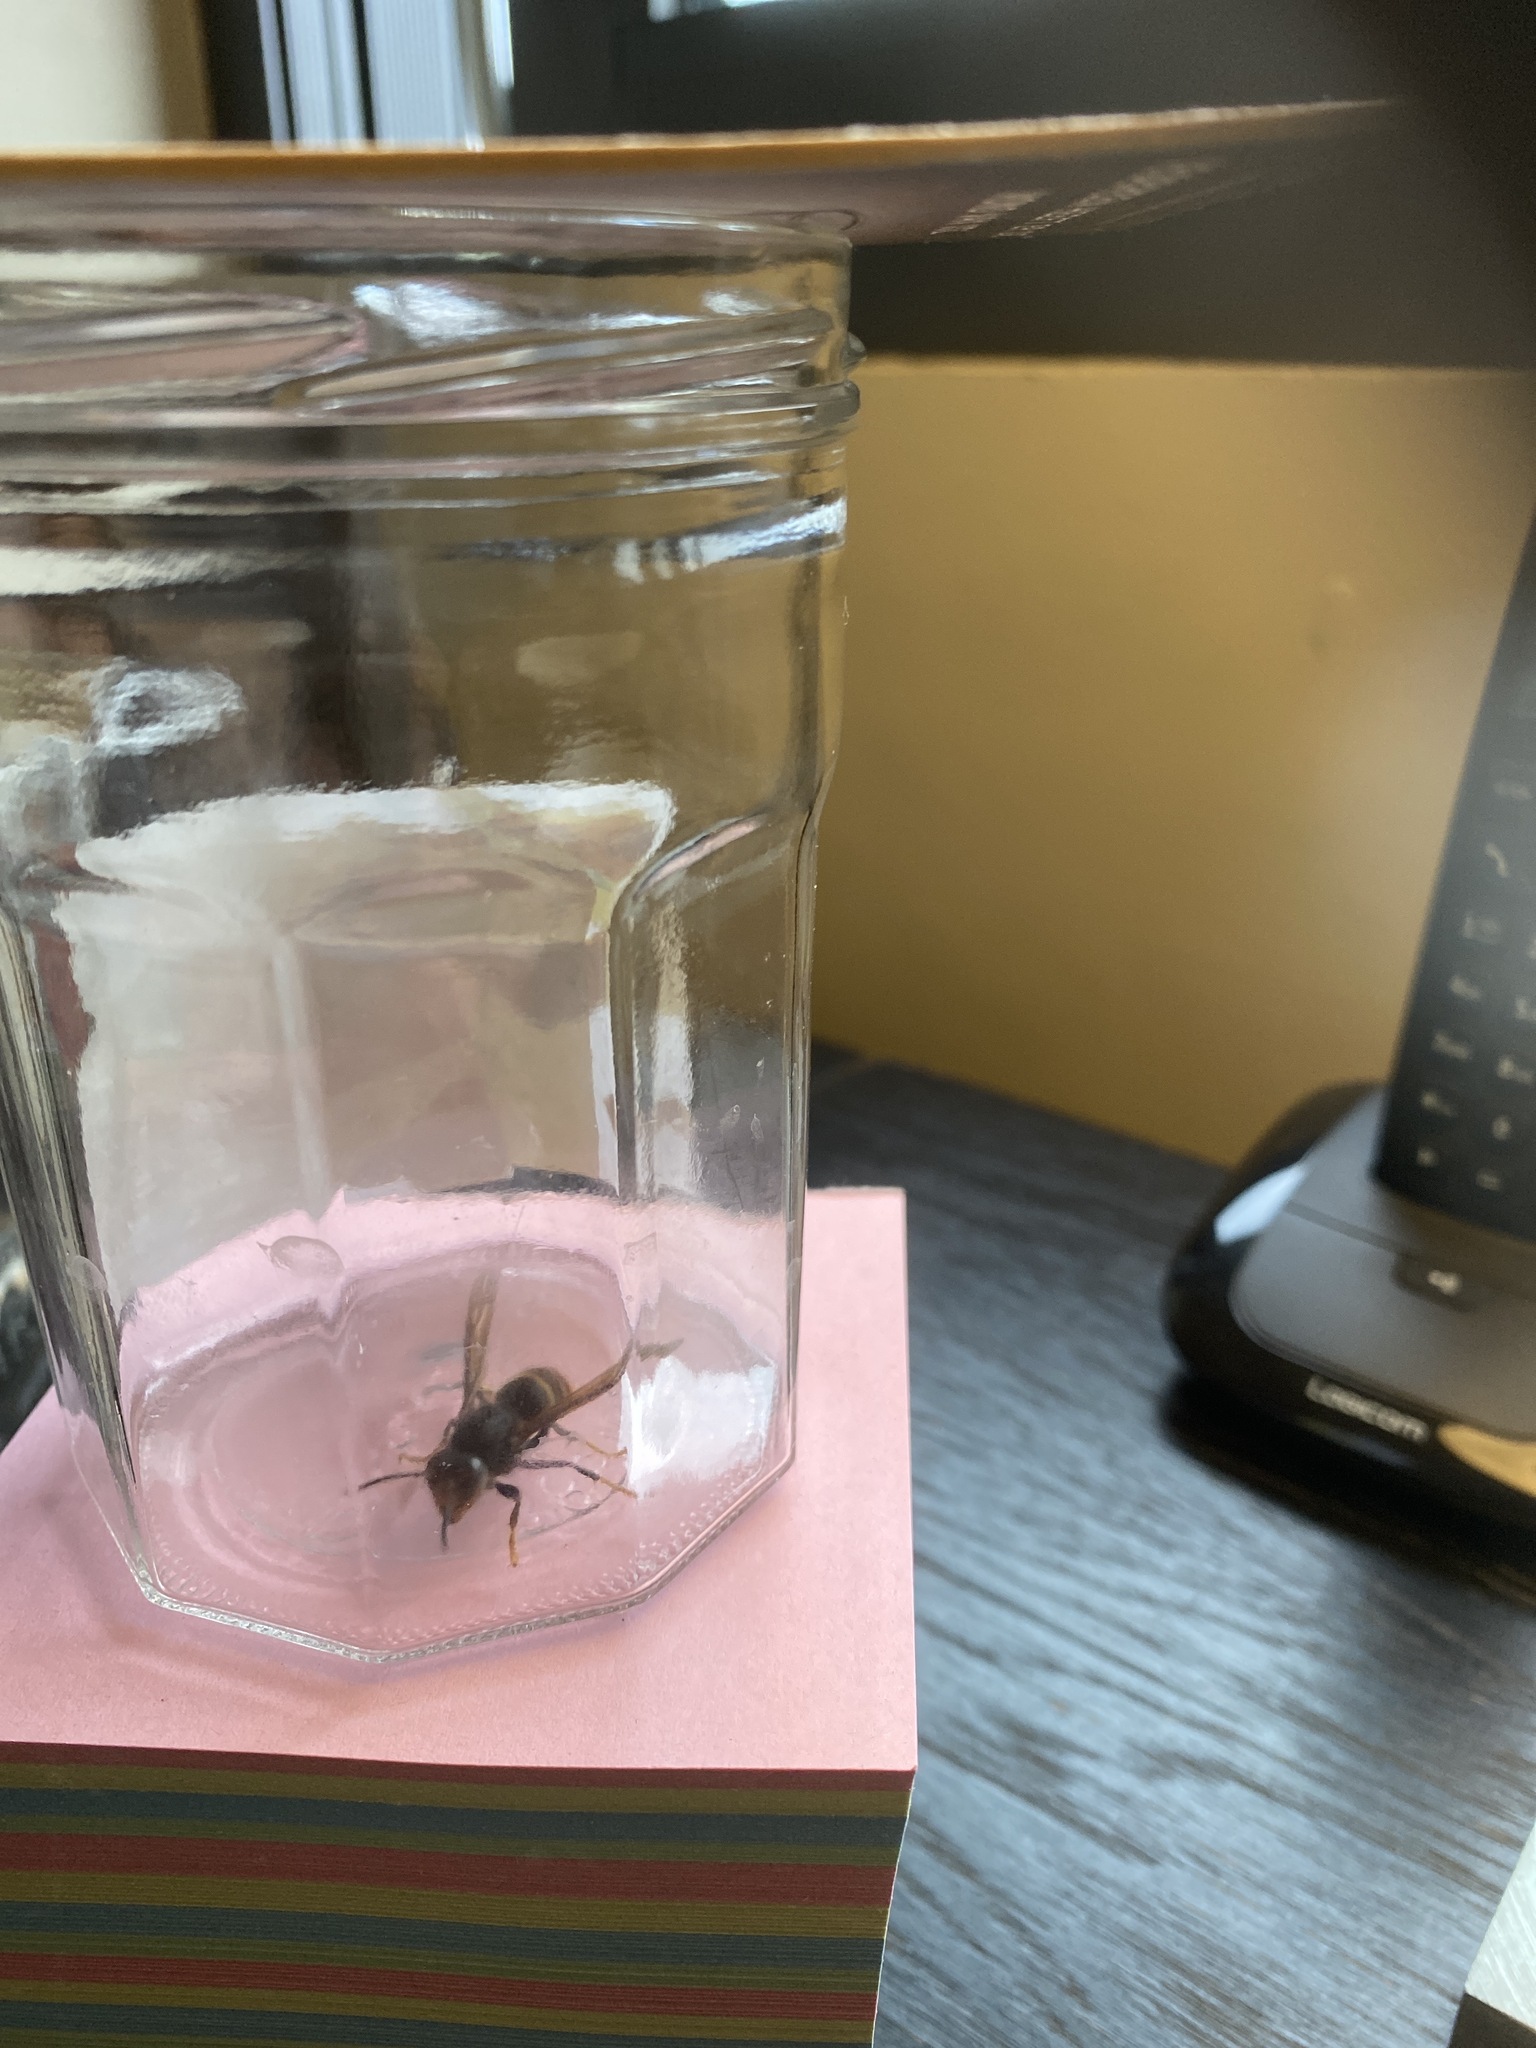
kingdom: Animalia
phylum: Arthropoda
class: Insecta
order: Hymenoptera
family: Vespidae
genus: Vespa
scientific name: Vespa velutina
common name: Asian hornet
